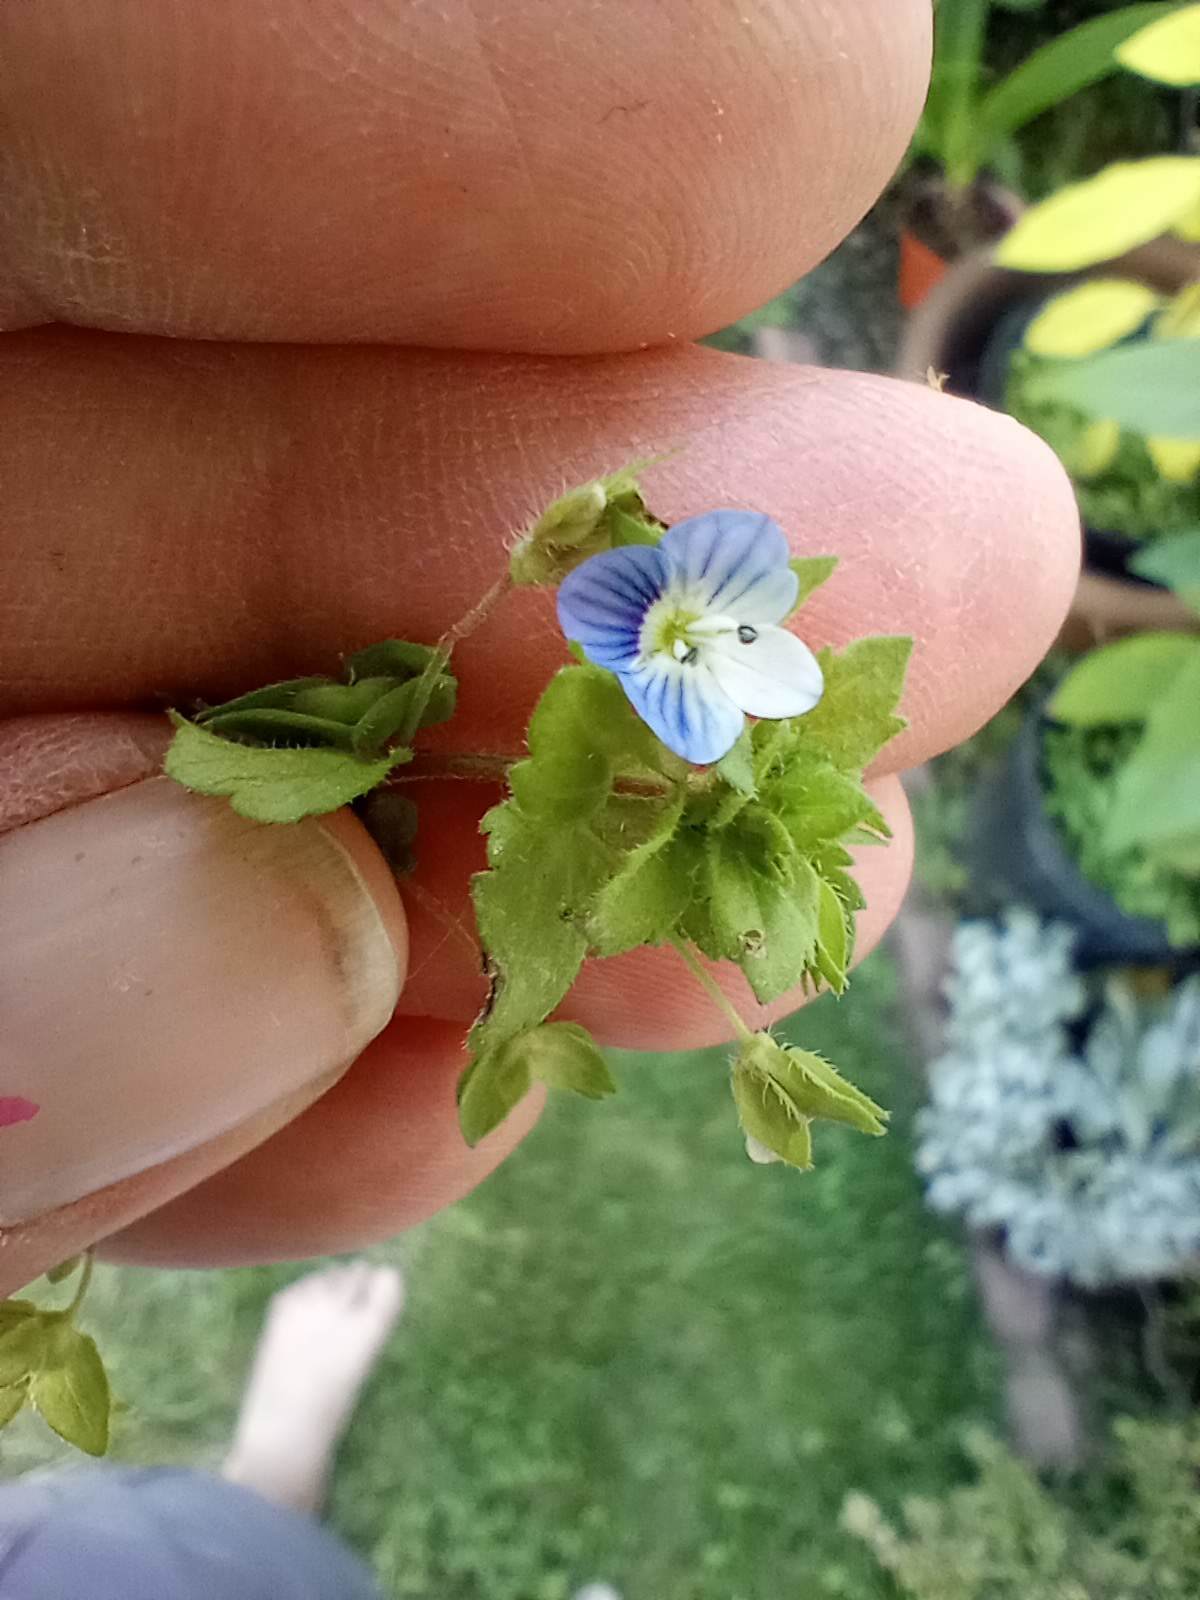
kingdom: Plantae
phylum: Tracheophyta
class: Magnoliopsida
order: Lamiales
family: Plantaginaceae
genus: Veronica
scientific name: Veronica persica
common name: Common field-speedwell
